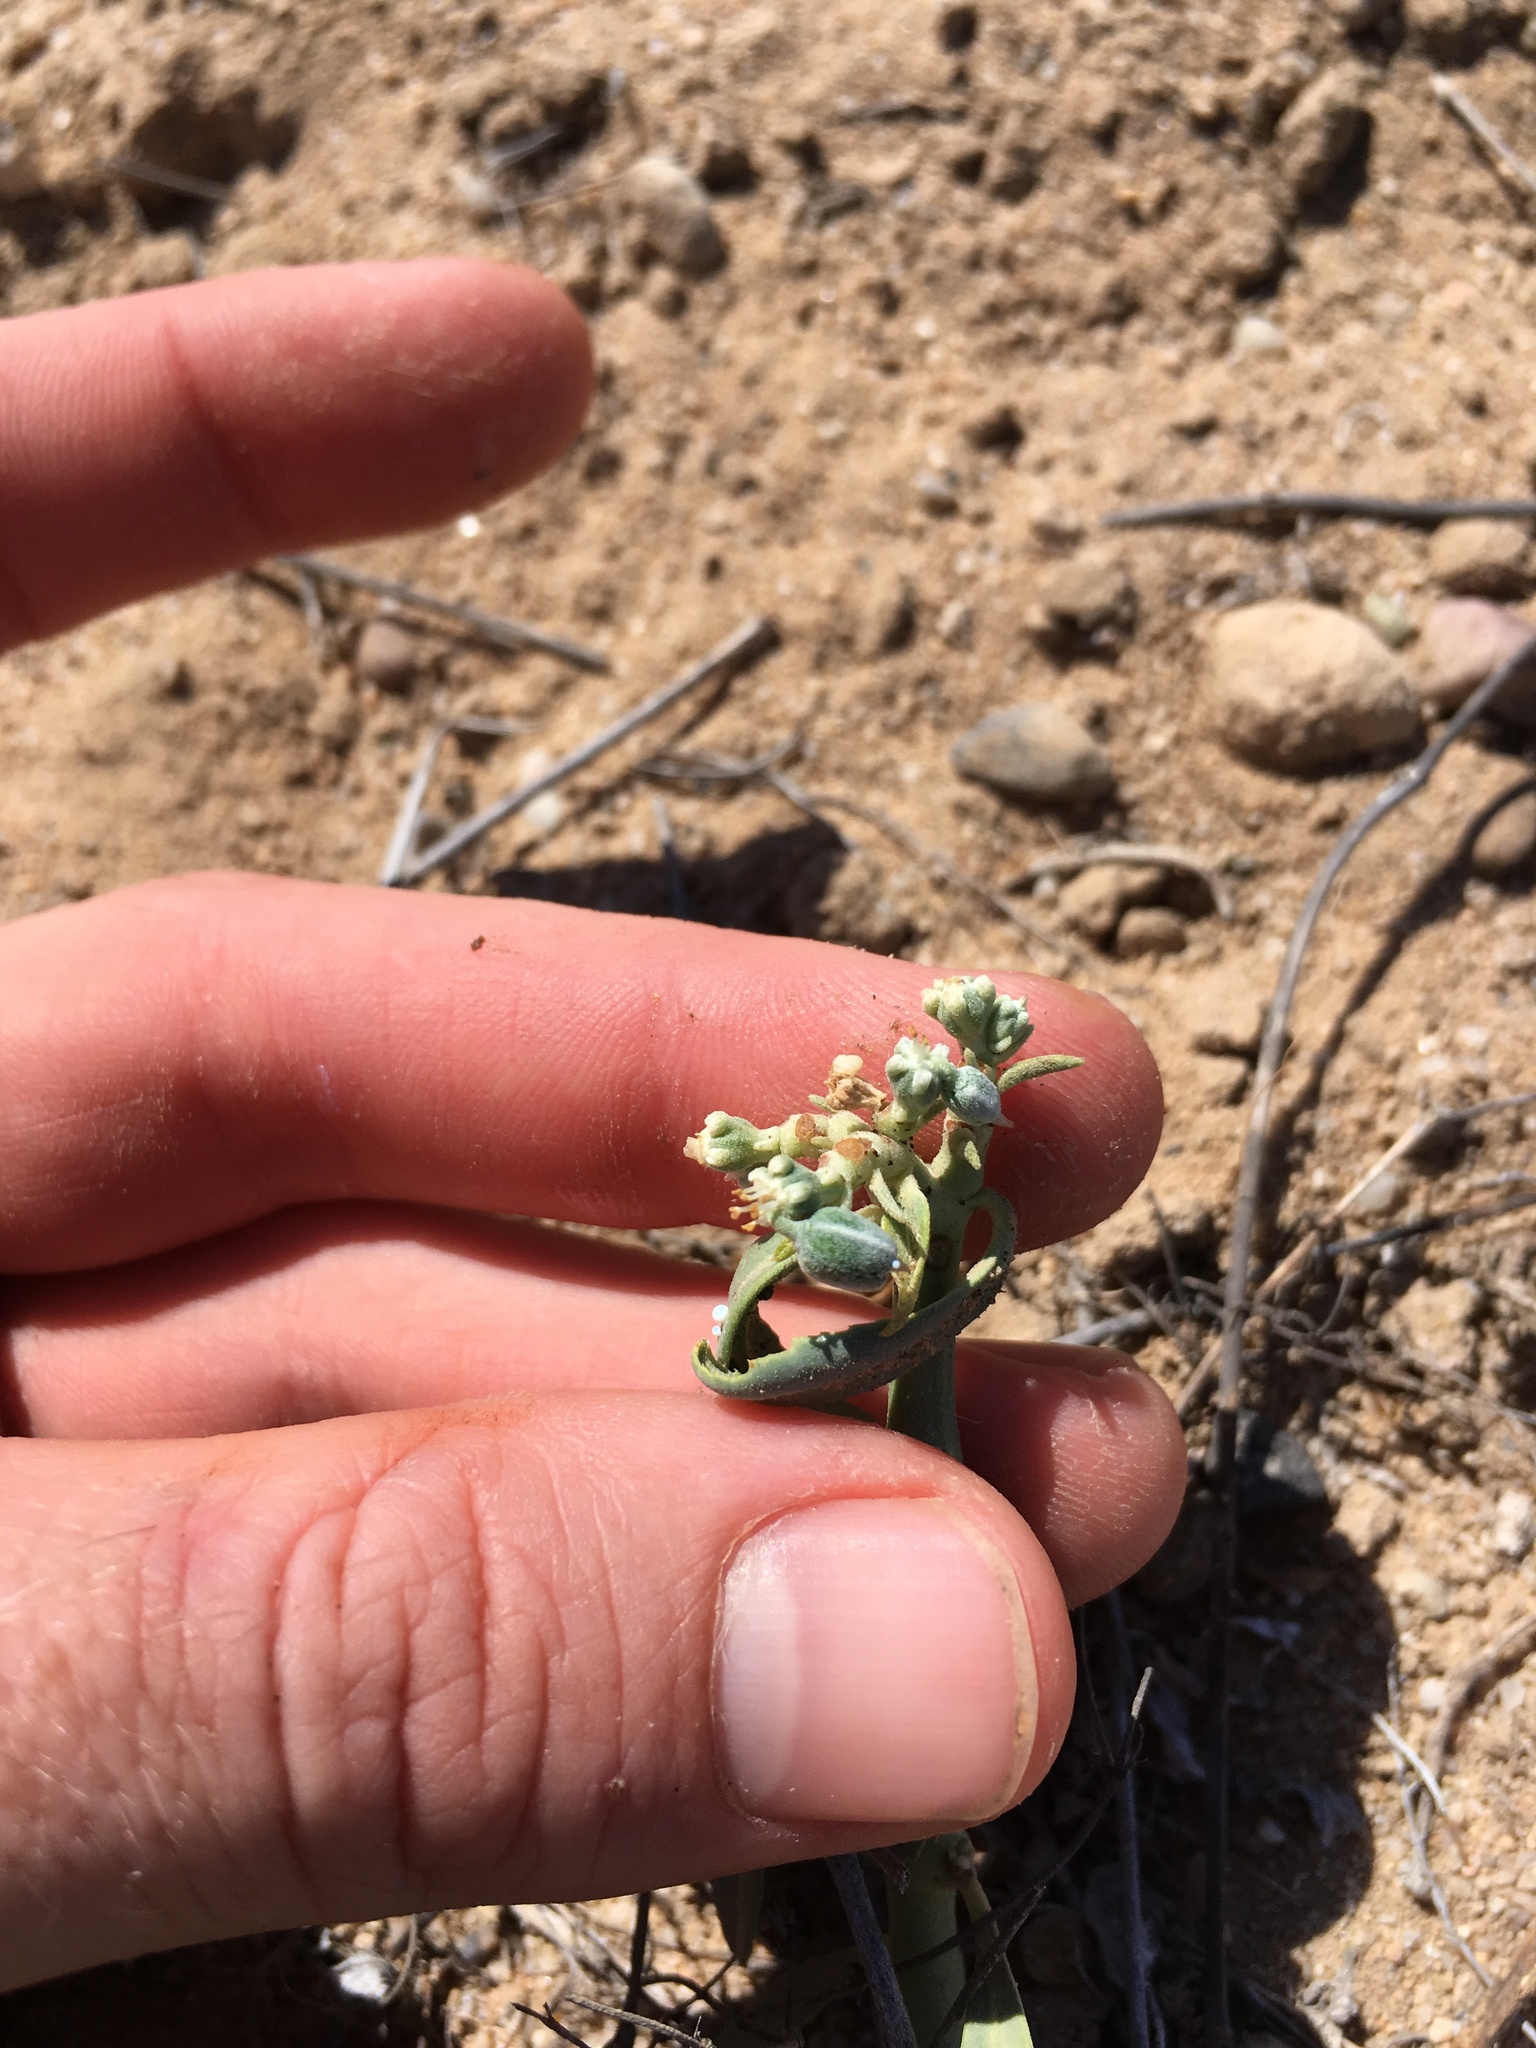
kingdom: Plantae
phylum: Tracheophyta
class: Magnoliopsida
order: Malpighiales
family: Euphorbiaceae
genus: Euphorbia
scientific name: Euphorbia eriantha
